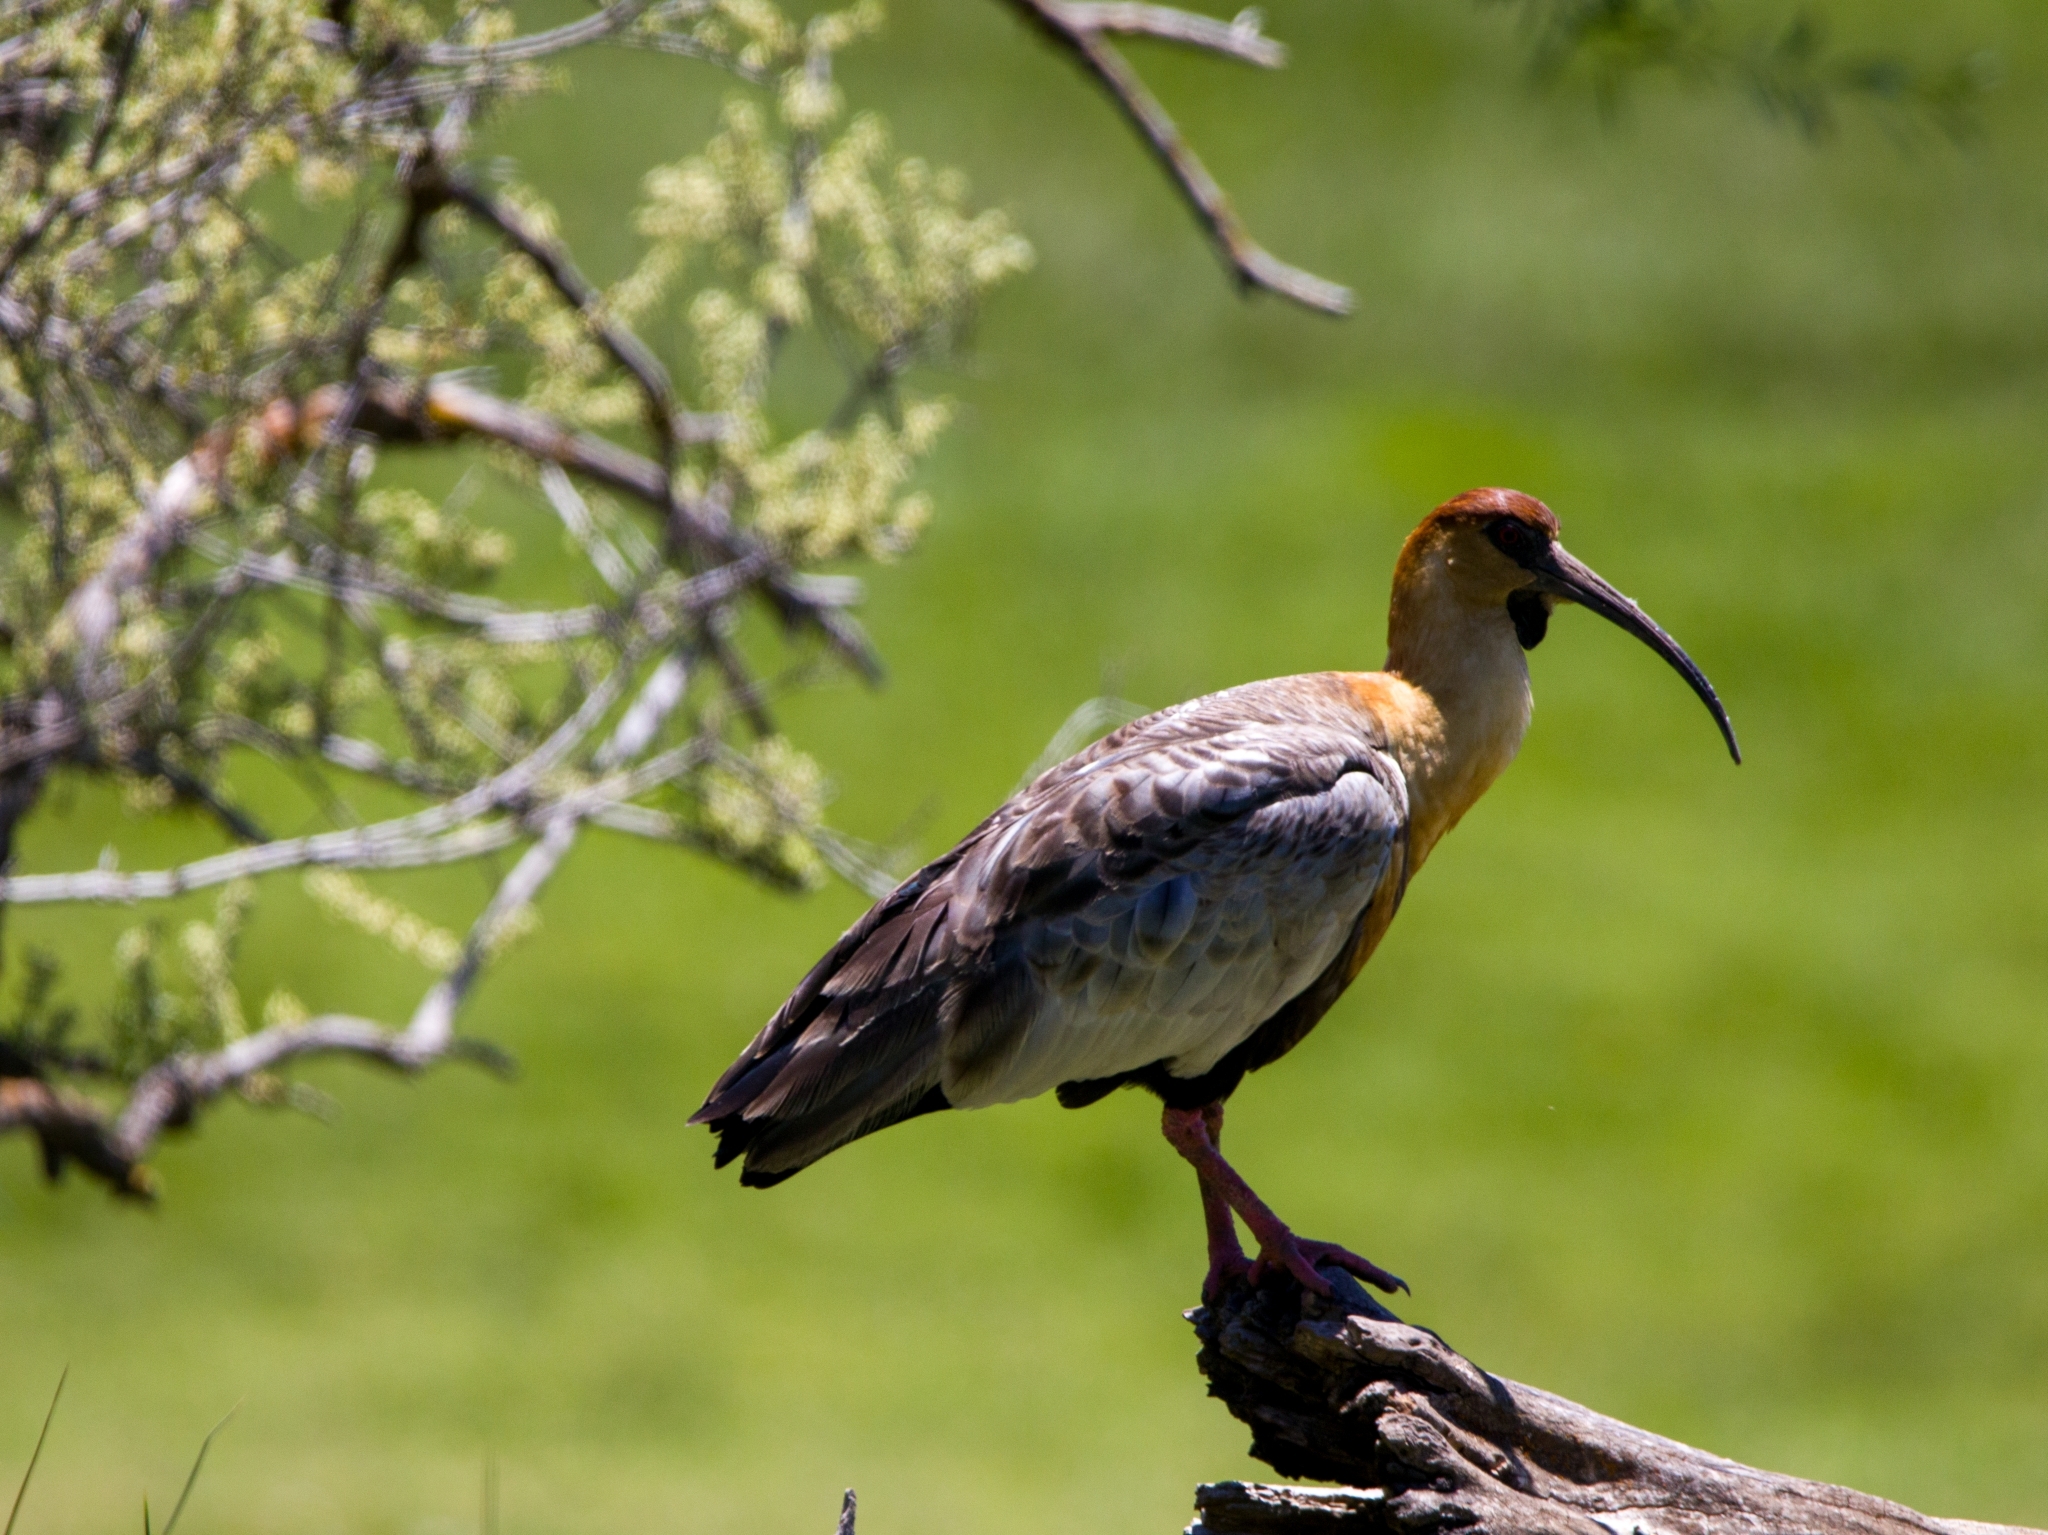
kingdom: Animalia
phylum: Chordata
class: Aves
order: Pelecaniformes
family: Threskiornithidae
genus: Theristicus
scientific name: Theristicus melanopis
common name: Black-faced ibis
